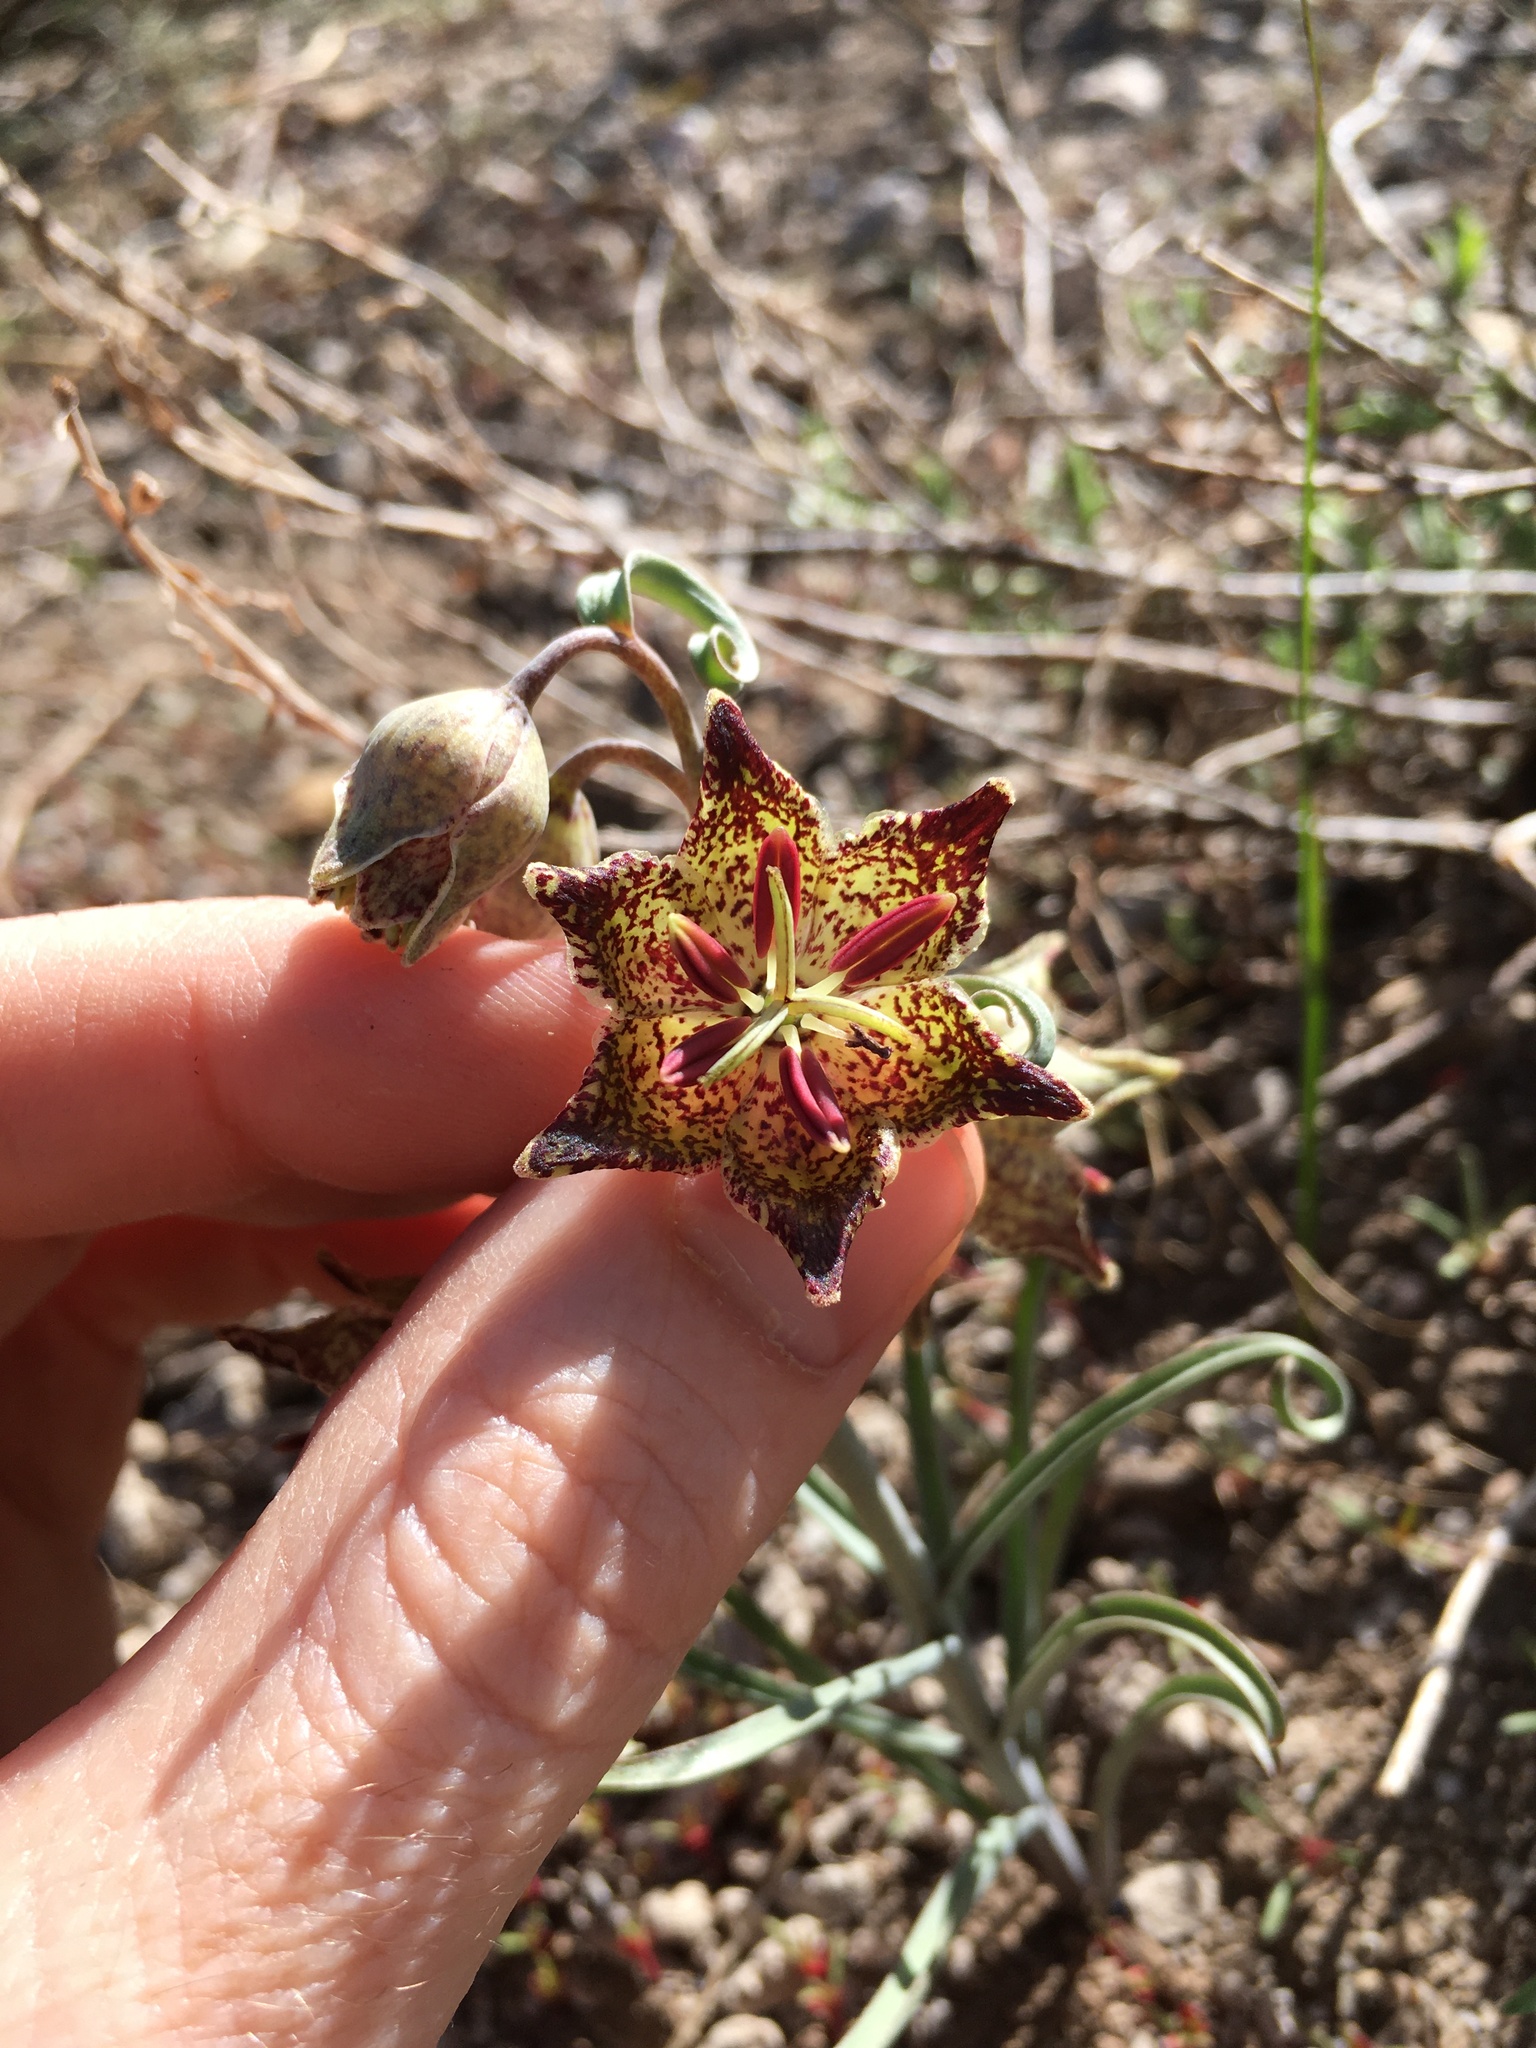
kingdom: Plantae
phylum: Tracheophyta
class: Liliopsida
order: Liliales
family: Liliaceae
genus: Fritillaria
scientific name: Fritillaria pinetorum
